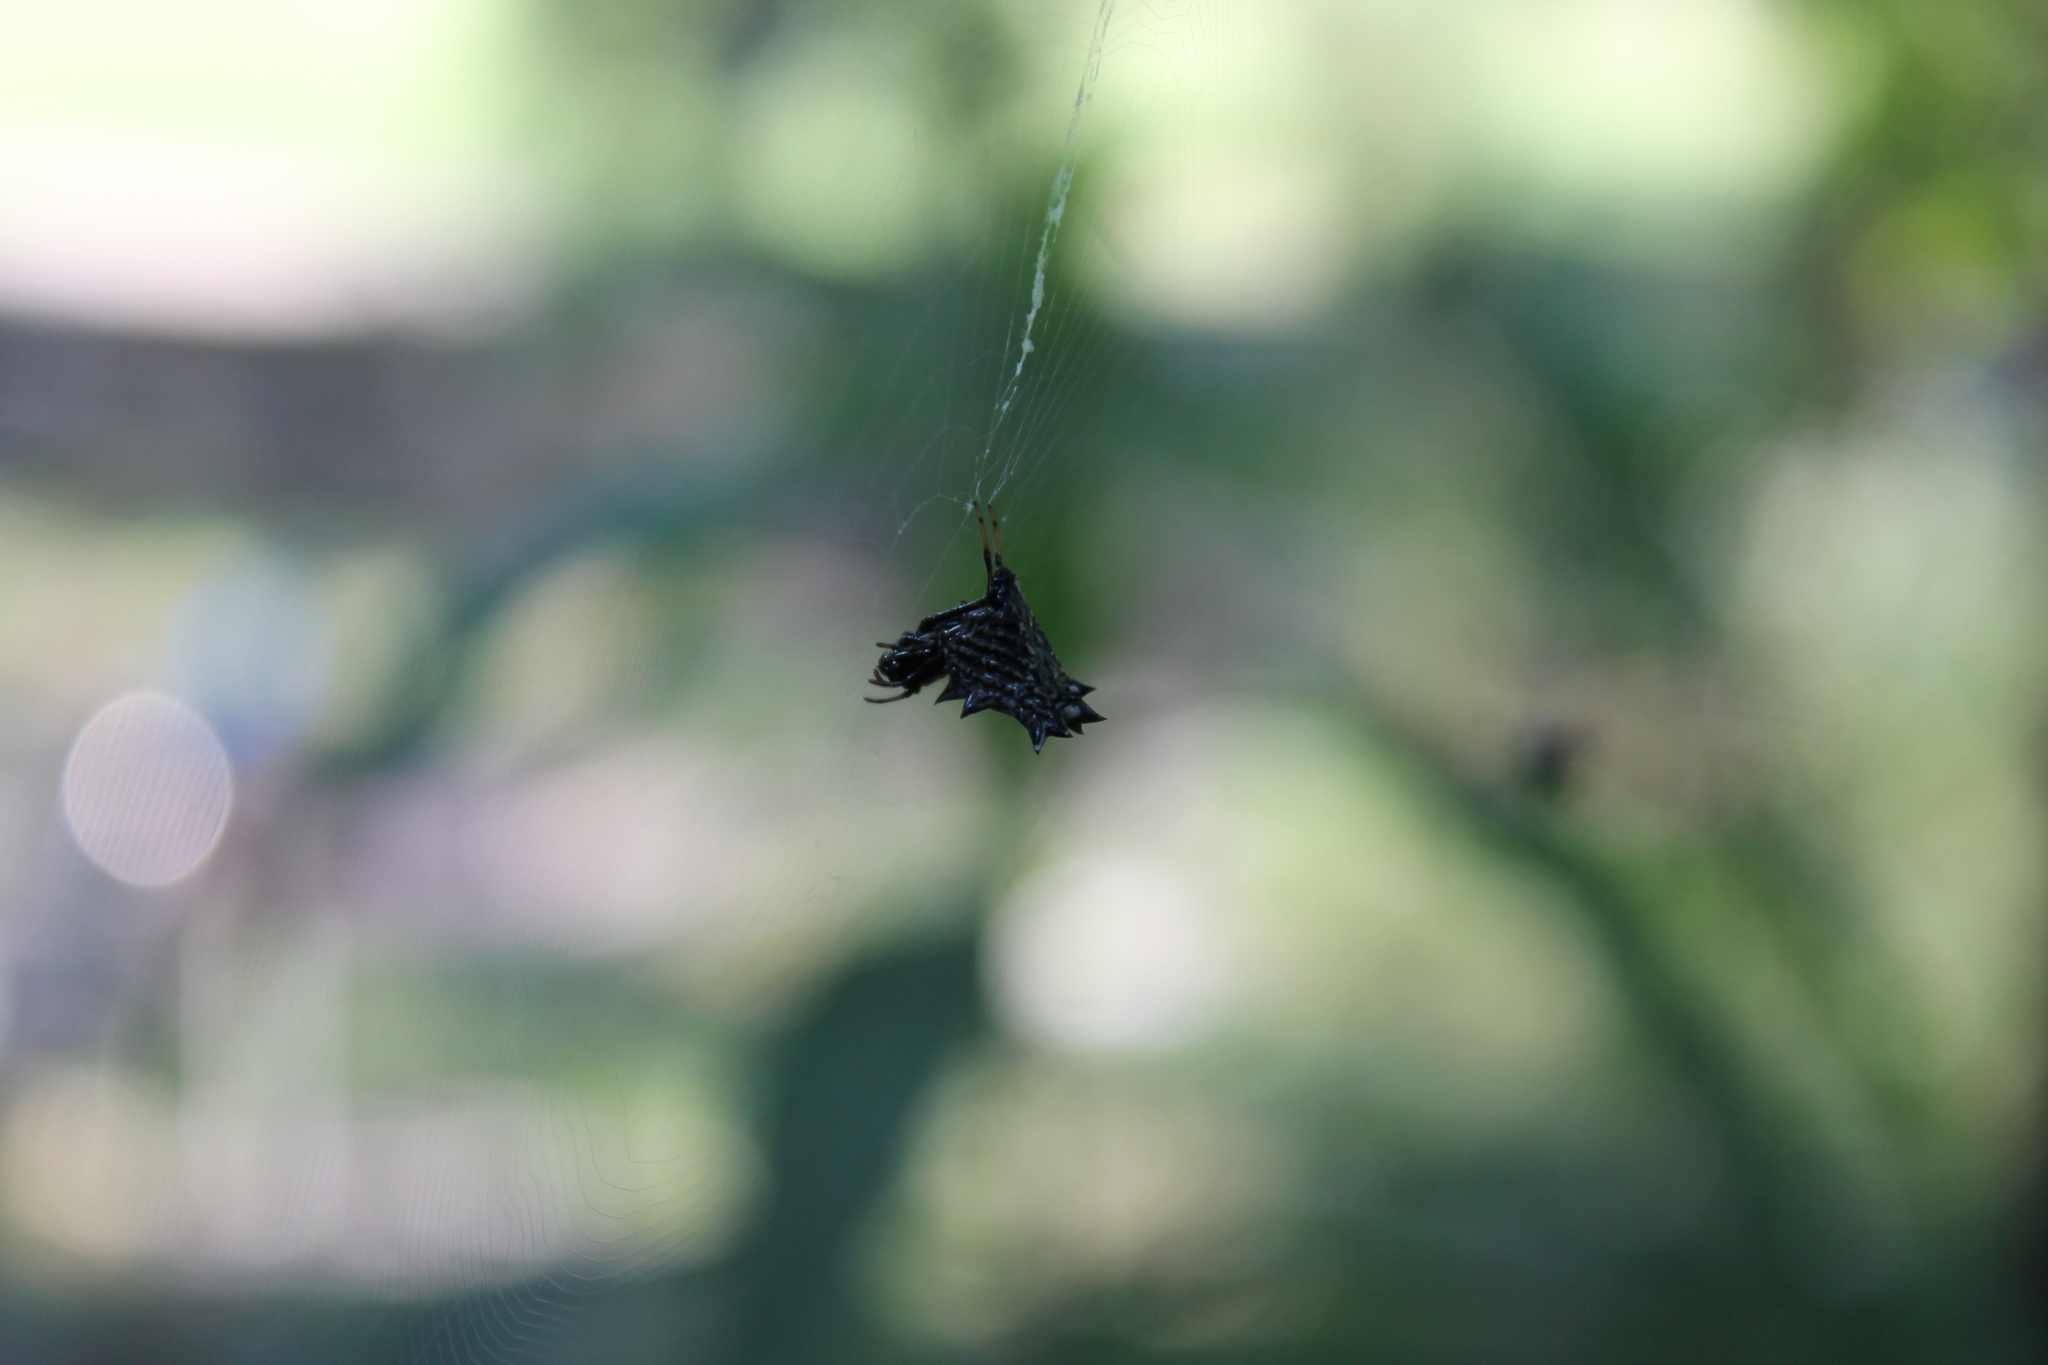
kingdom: Animalia
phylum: Arthropoda
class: Arachnida
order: Araneae
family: Araneidae
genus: Micrathena
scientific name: Micrathena gracilis
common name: Orb weavers
